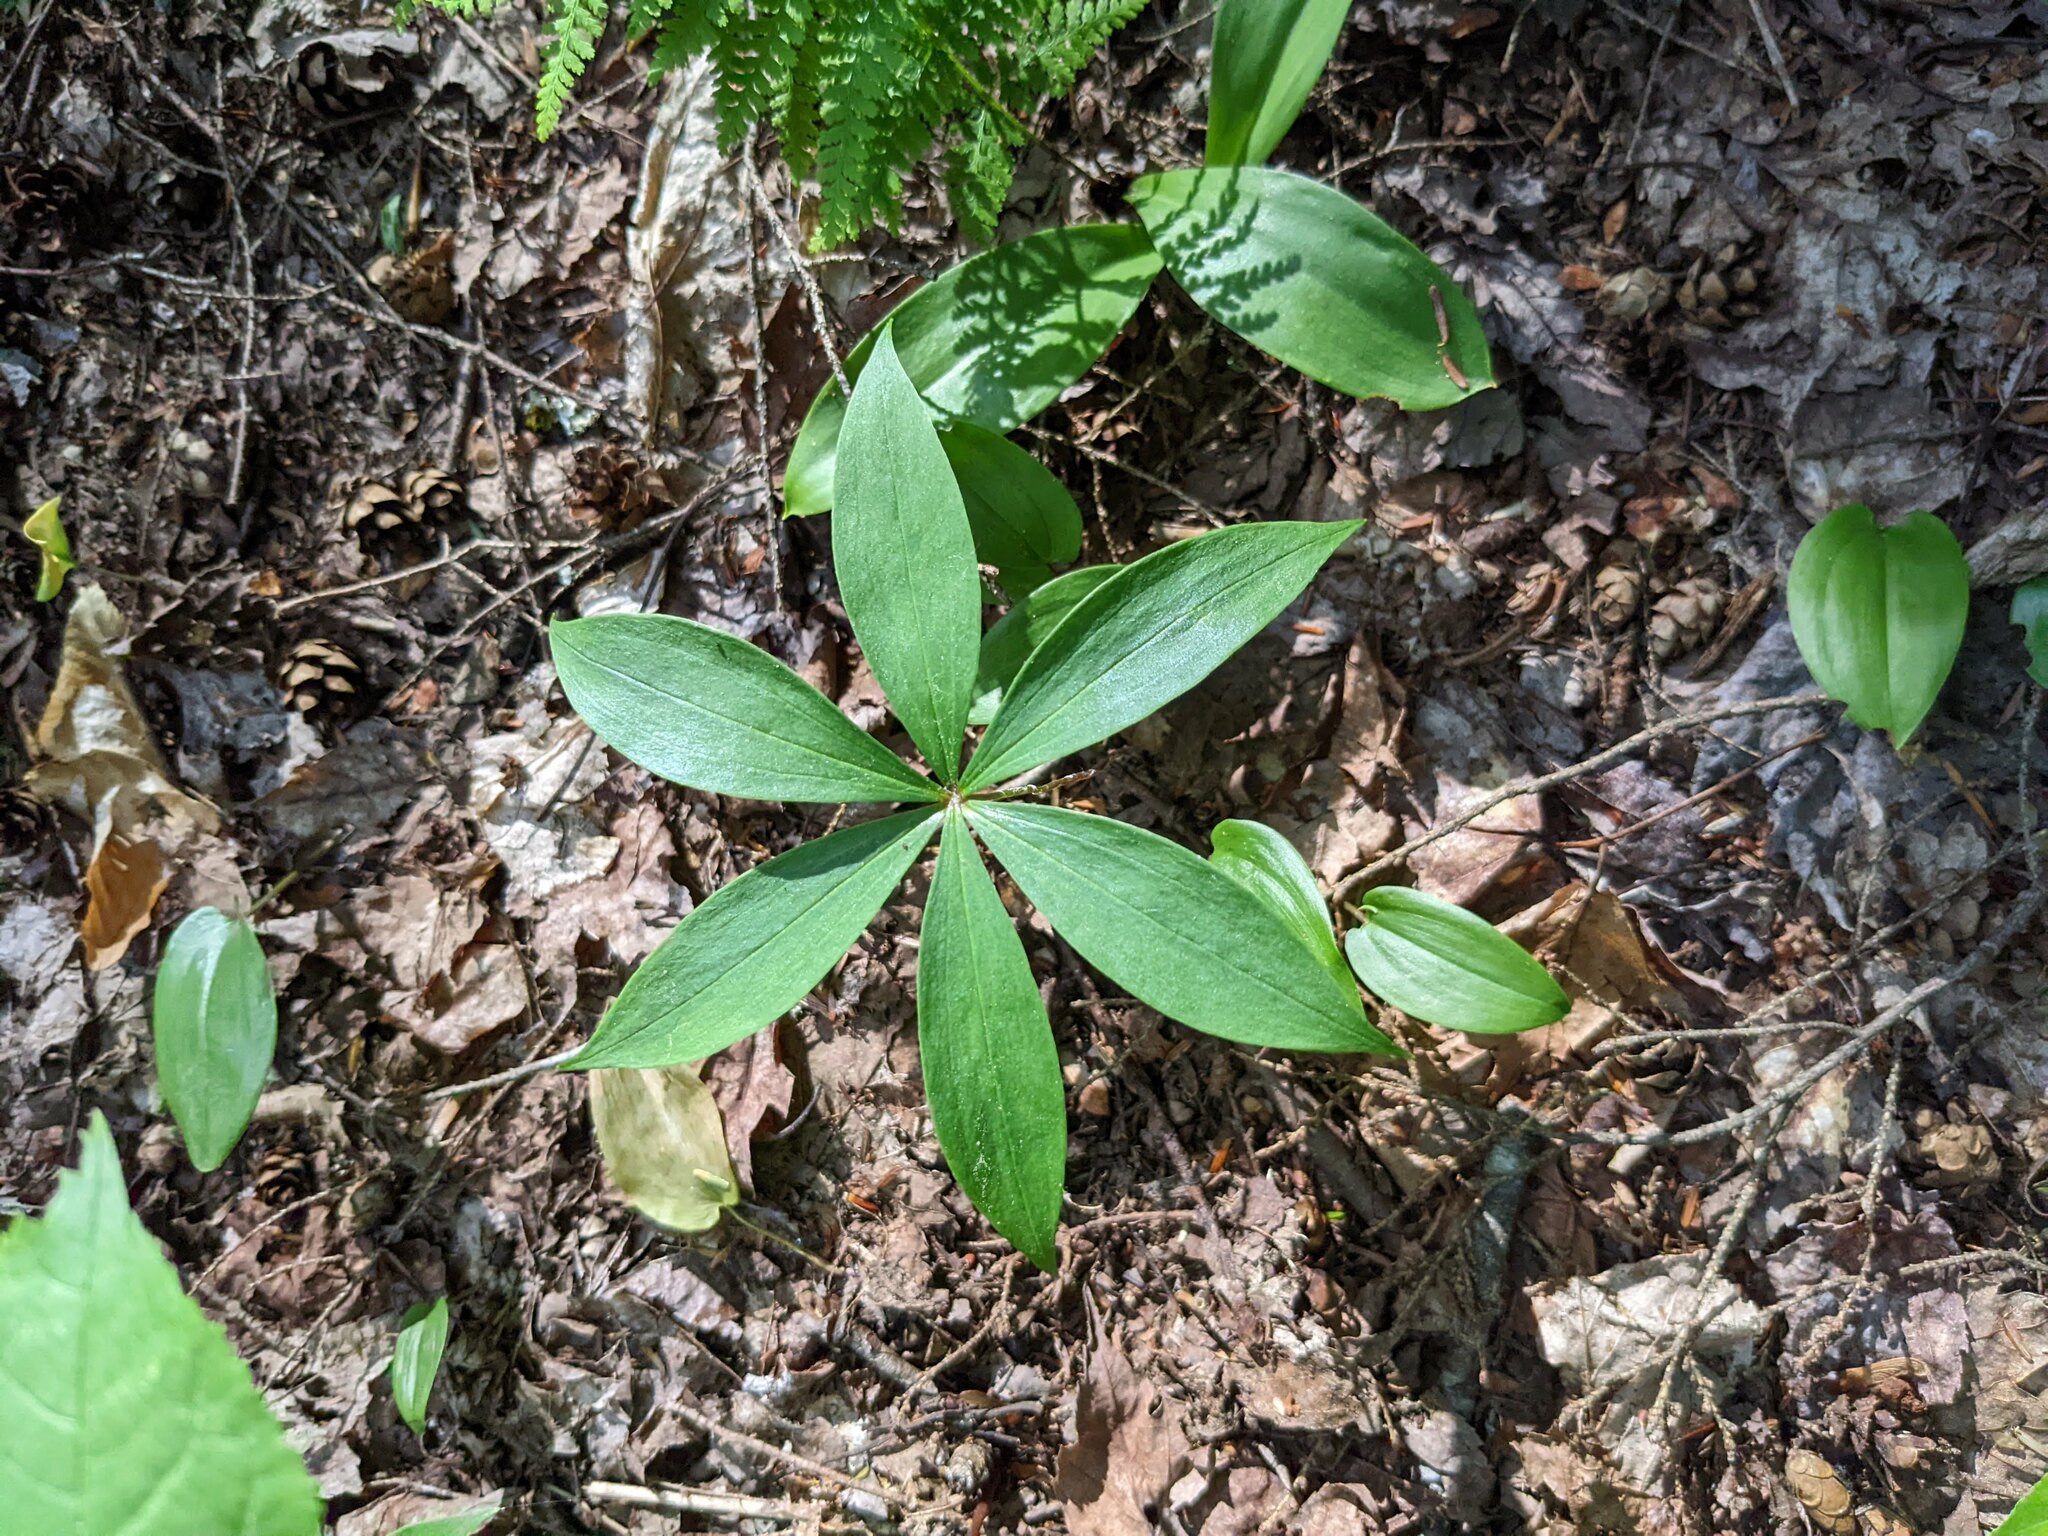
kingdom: Plantae
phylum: Tracheophyta
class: Liliopsida
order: Asparagales
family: Asparagaceae
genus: Maianthemum
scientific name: Maianthemum canadense
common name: False lily-of-the-valley
